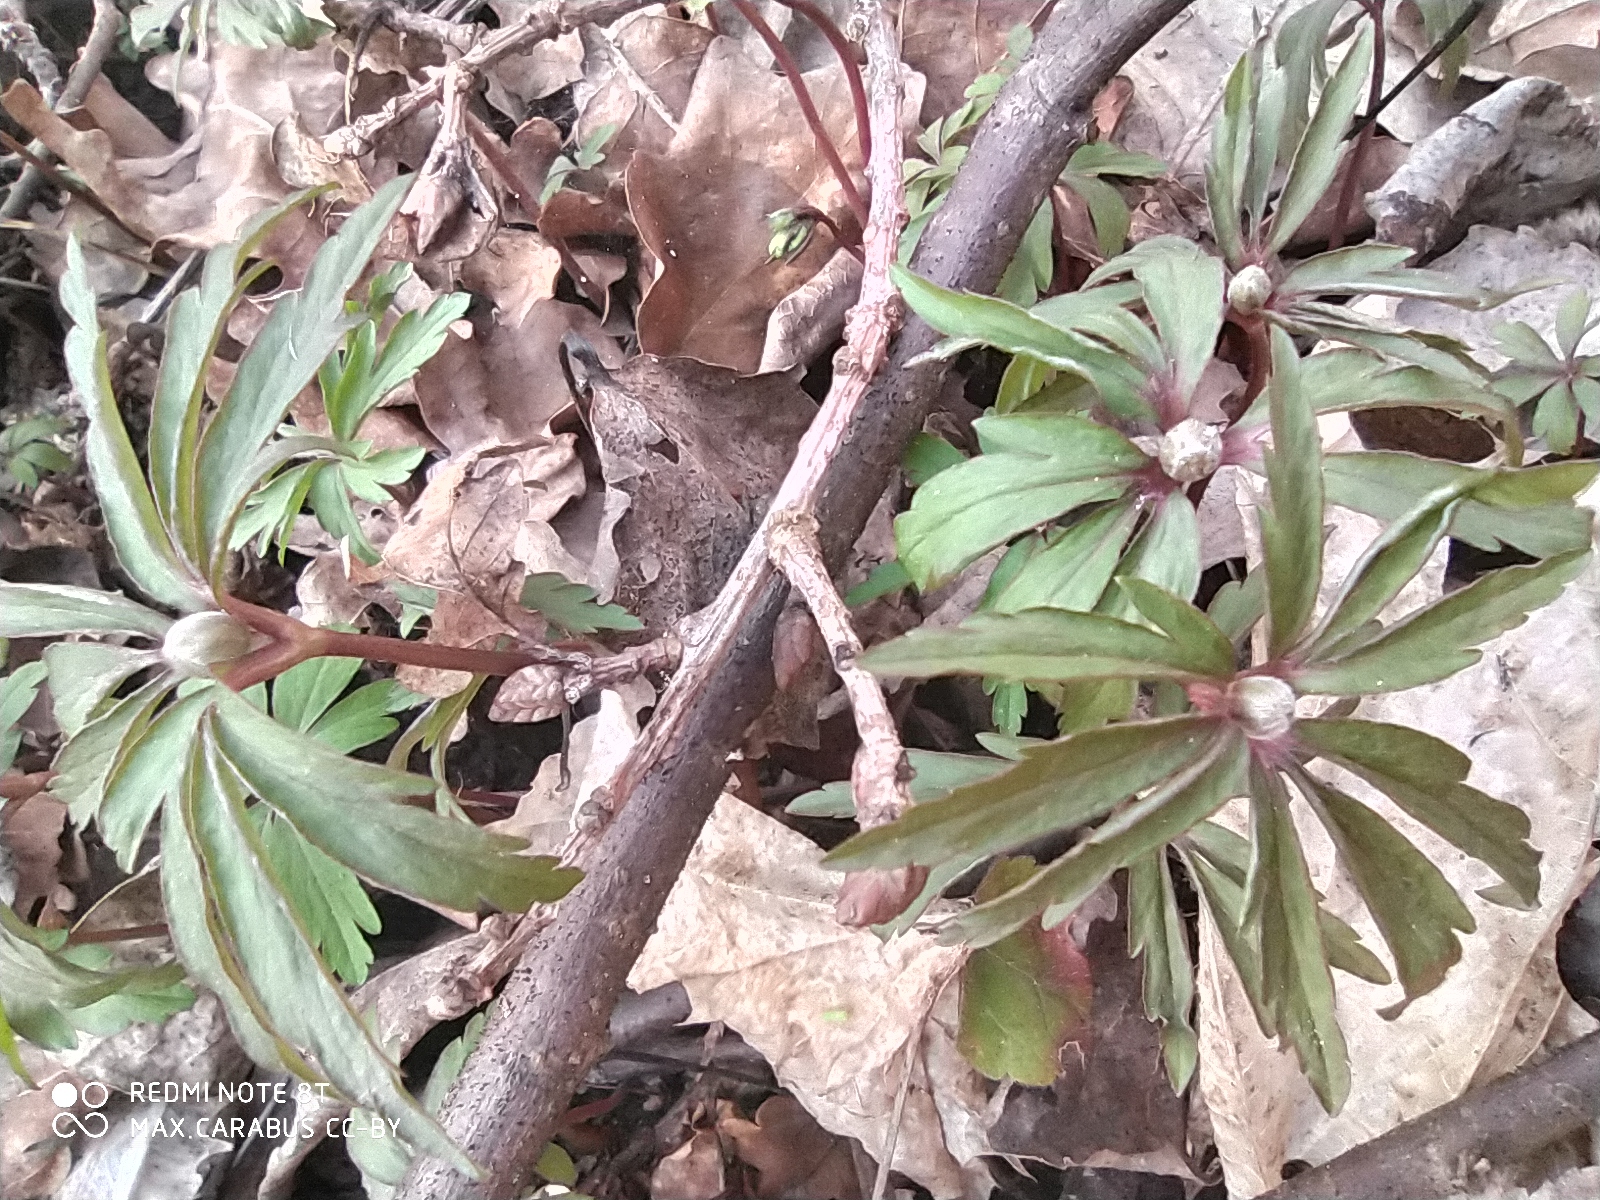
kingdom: Plantae
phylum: Tracheophyta
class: Magnoliopsida
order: Ranunculales
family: Ranunculaceae
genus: Anemone
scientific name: Anemone ranunculoides
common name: Yellow anemone
